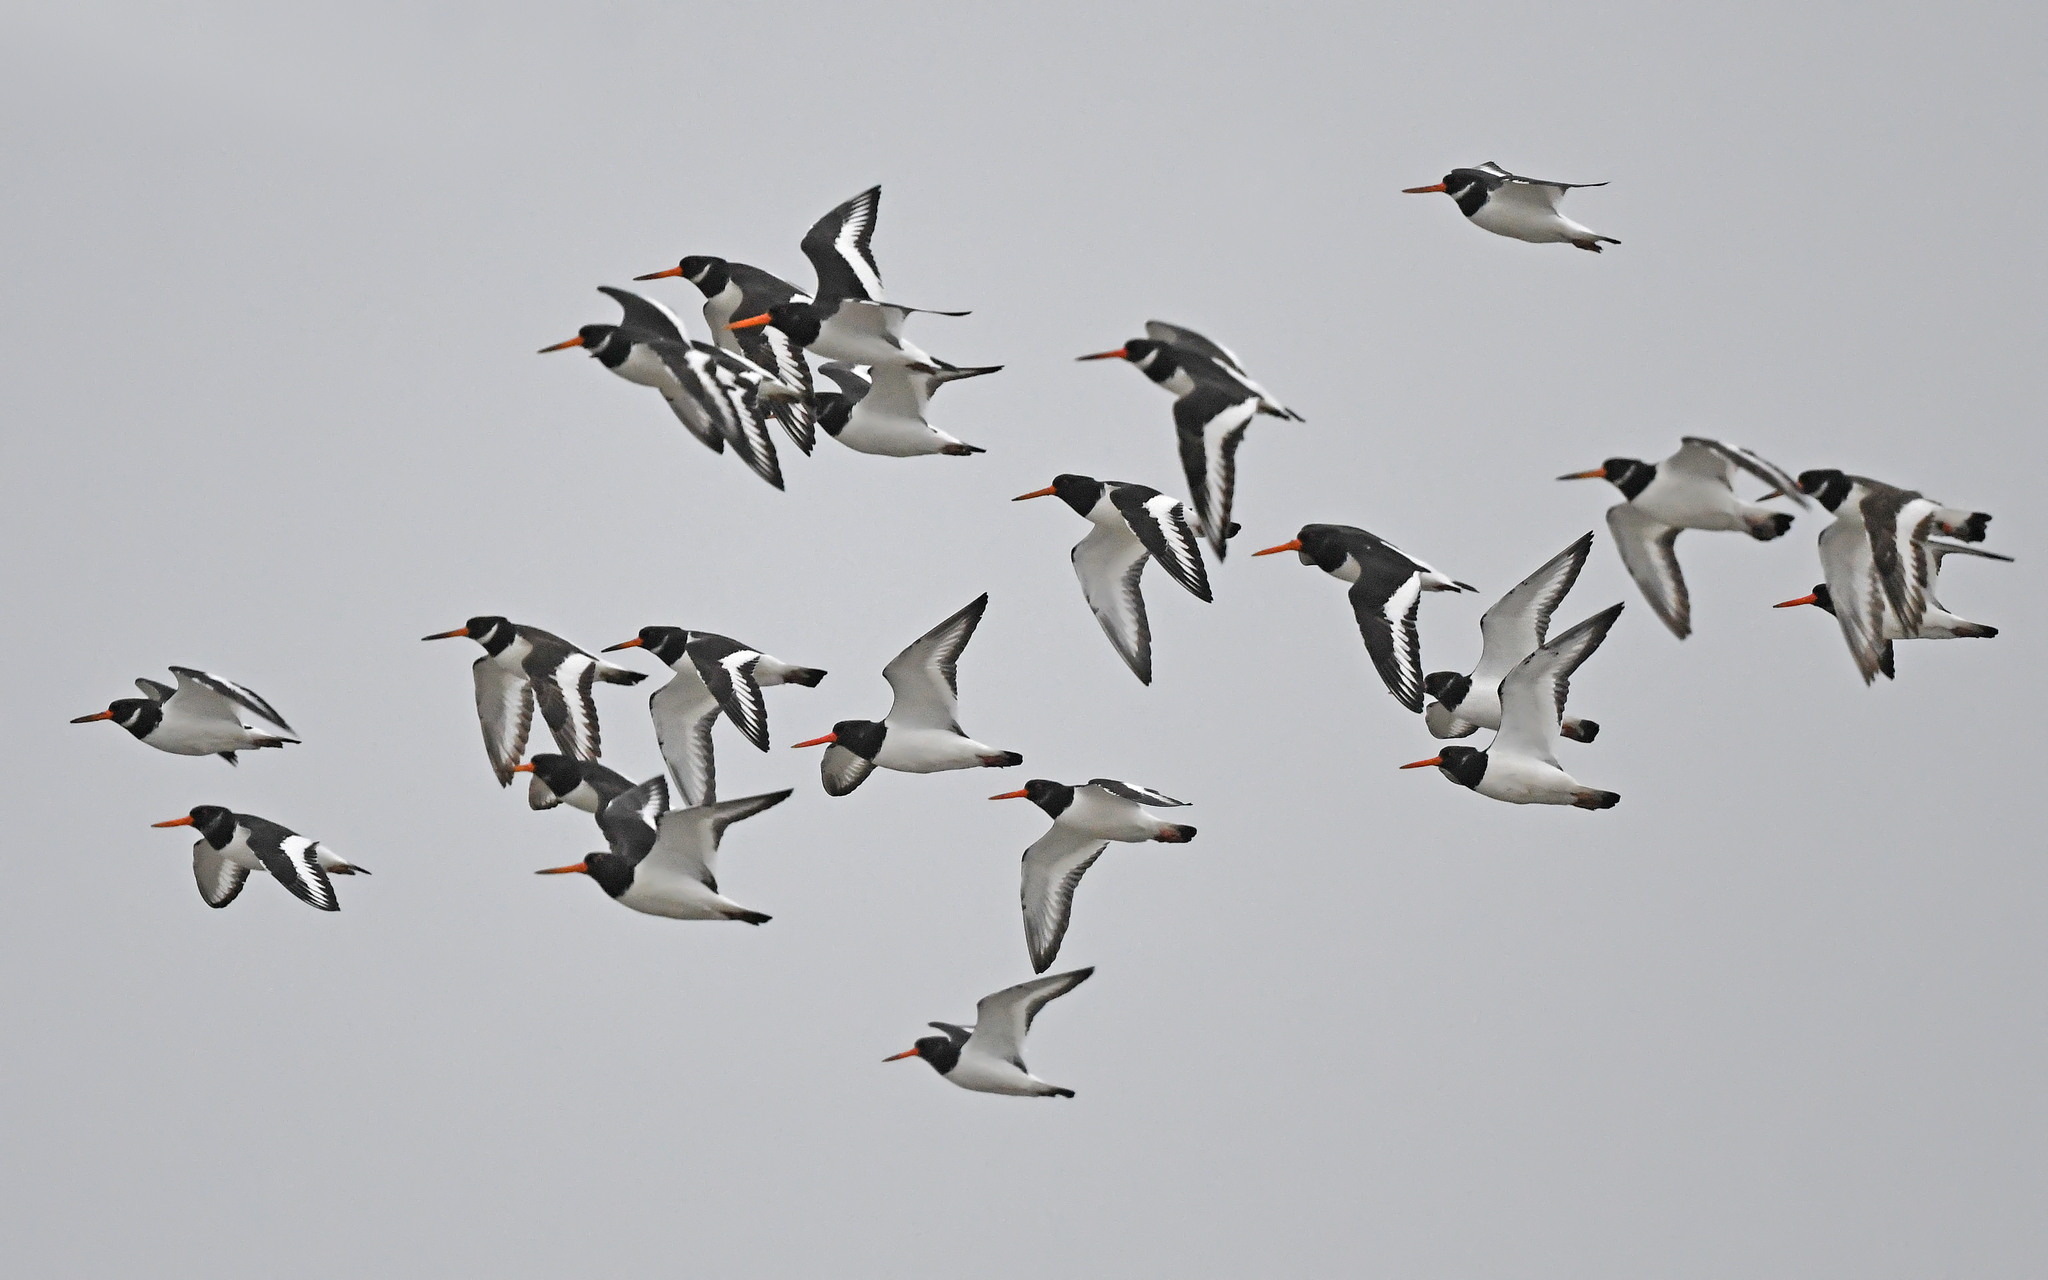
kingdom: Animalia
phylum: Chordata
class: Aves
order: Charadriiformes
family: Haematopodidae
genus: Haematopus
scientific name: Haematopus ostralegus
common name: Eurasian oystercatcher
